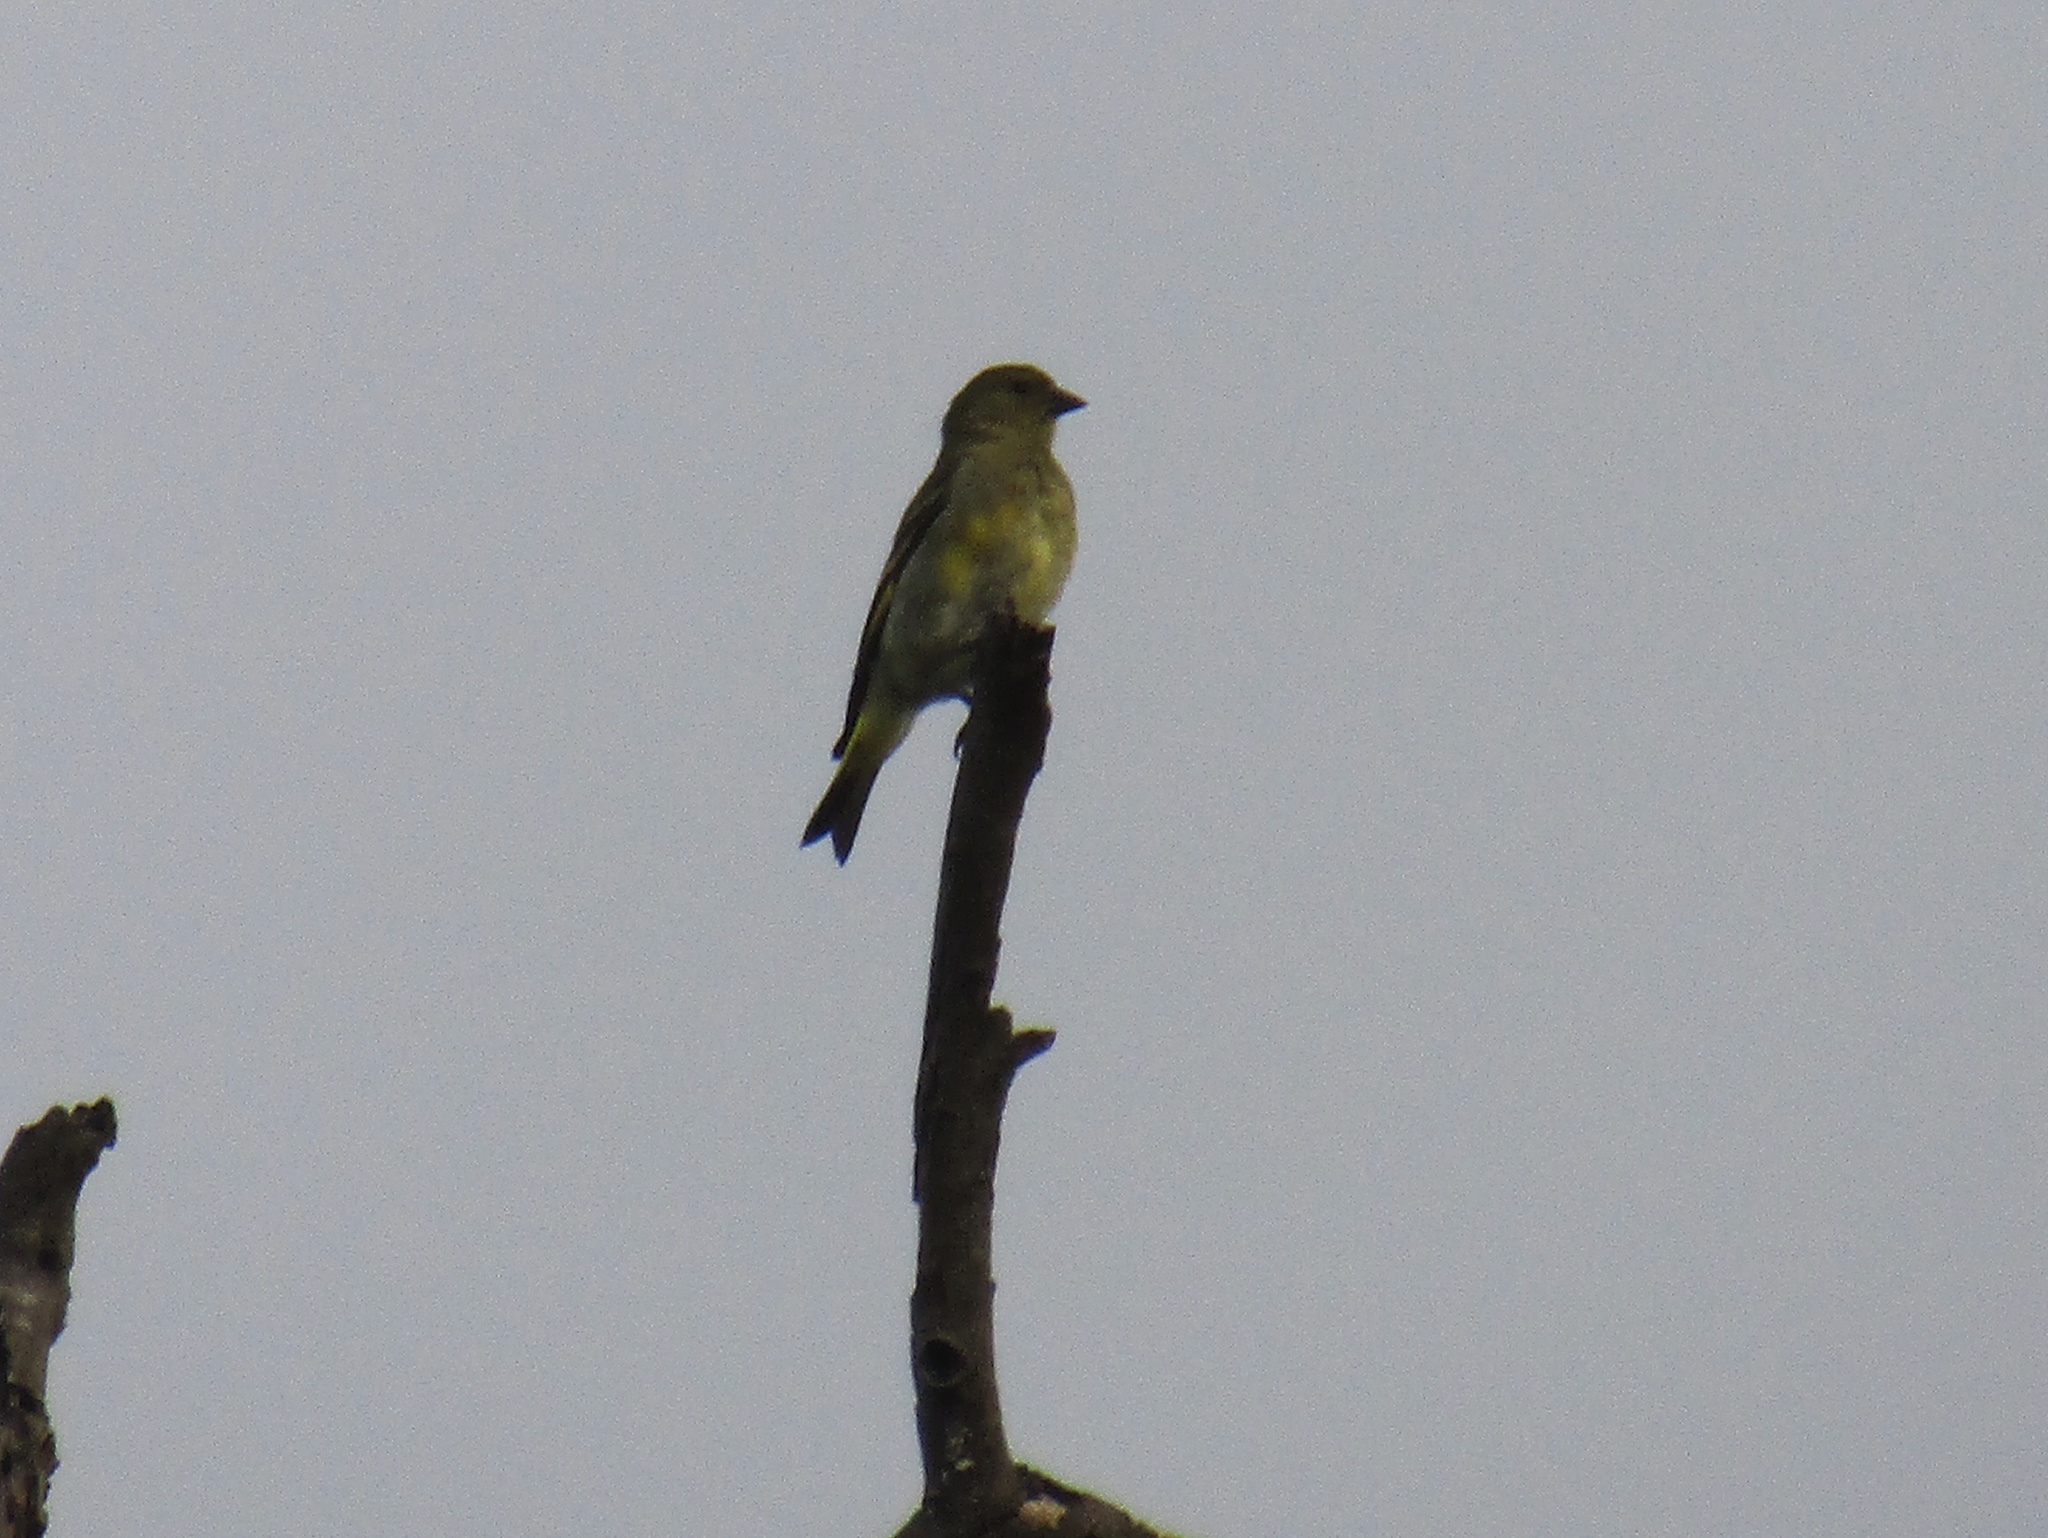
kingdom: Animalia
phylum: Chordata
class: Aves
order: Passeriformes
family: Fringillidae
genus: Spinus
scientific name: Spinus magellanicus
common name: Hooded siskin
